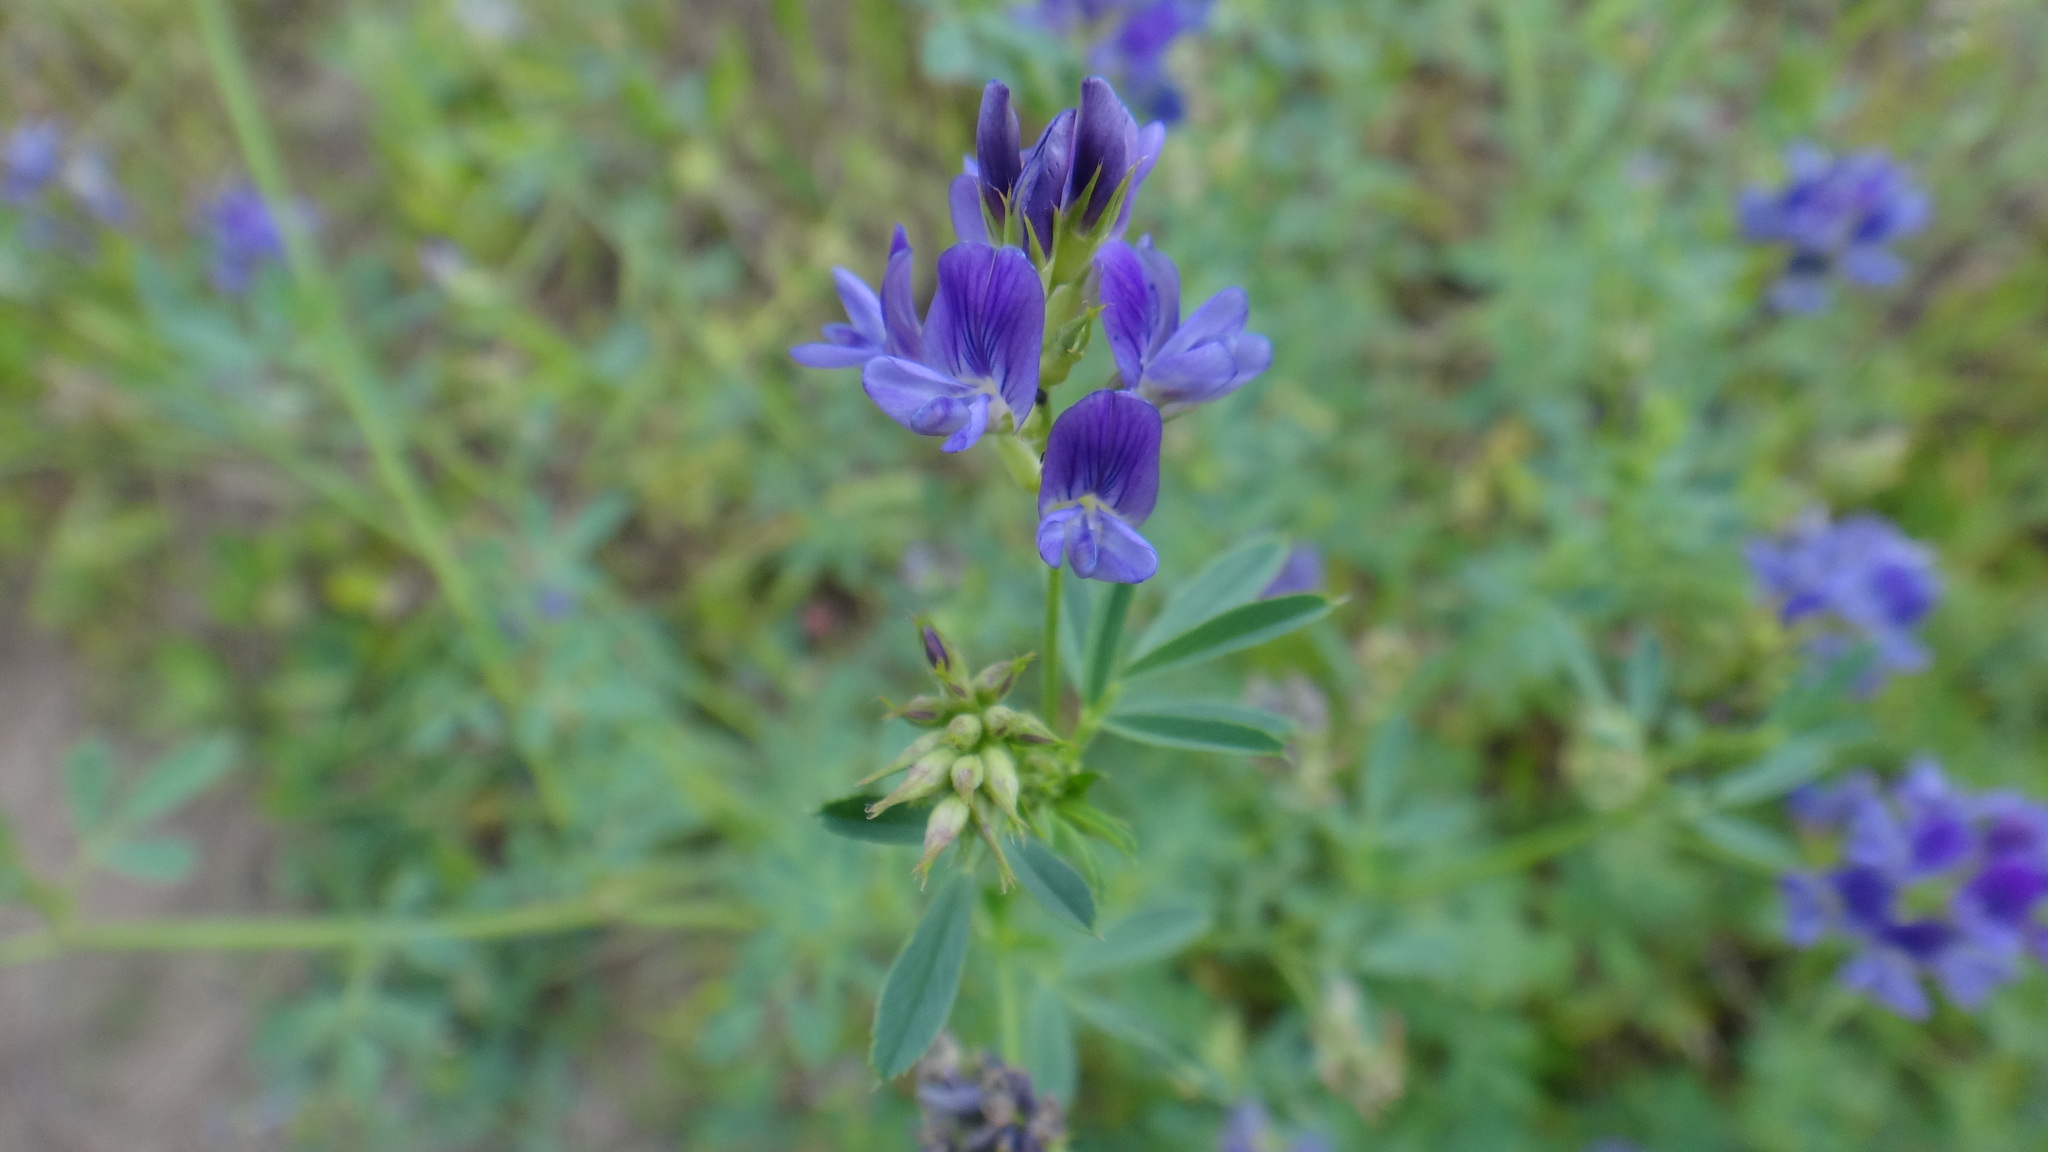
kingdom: Plantae
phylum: Tracheophyta
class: Magnoliopsida
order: Fabales
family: Fabaceae
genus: Medicago
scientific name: Medicago sativa
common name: Alfalfa
